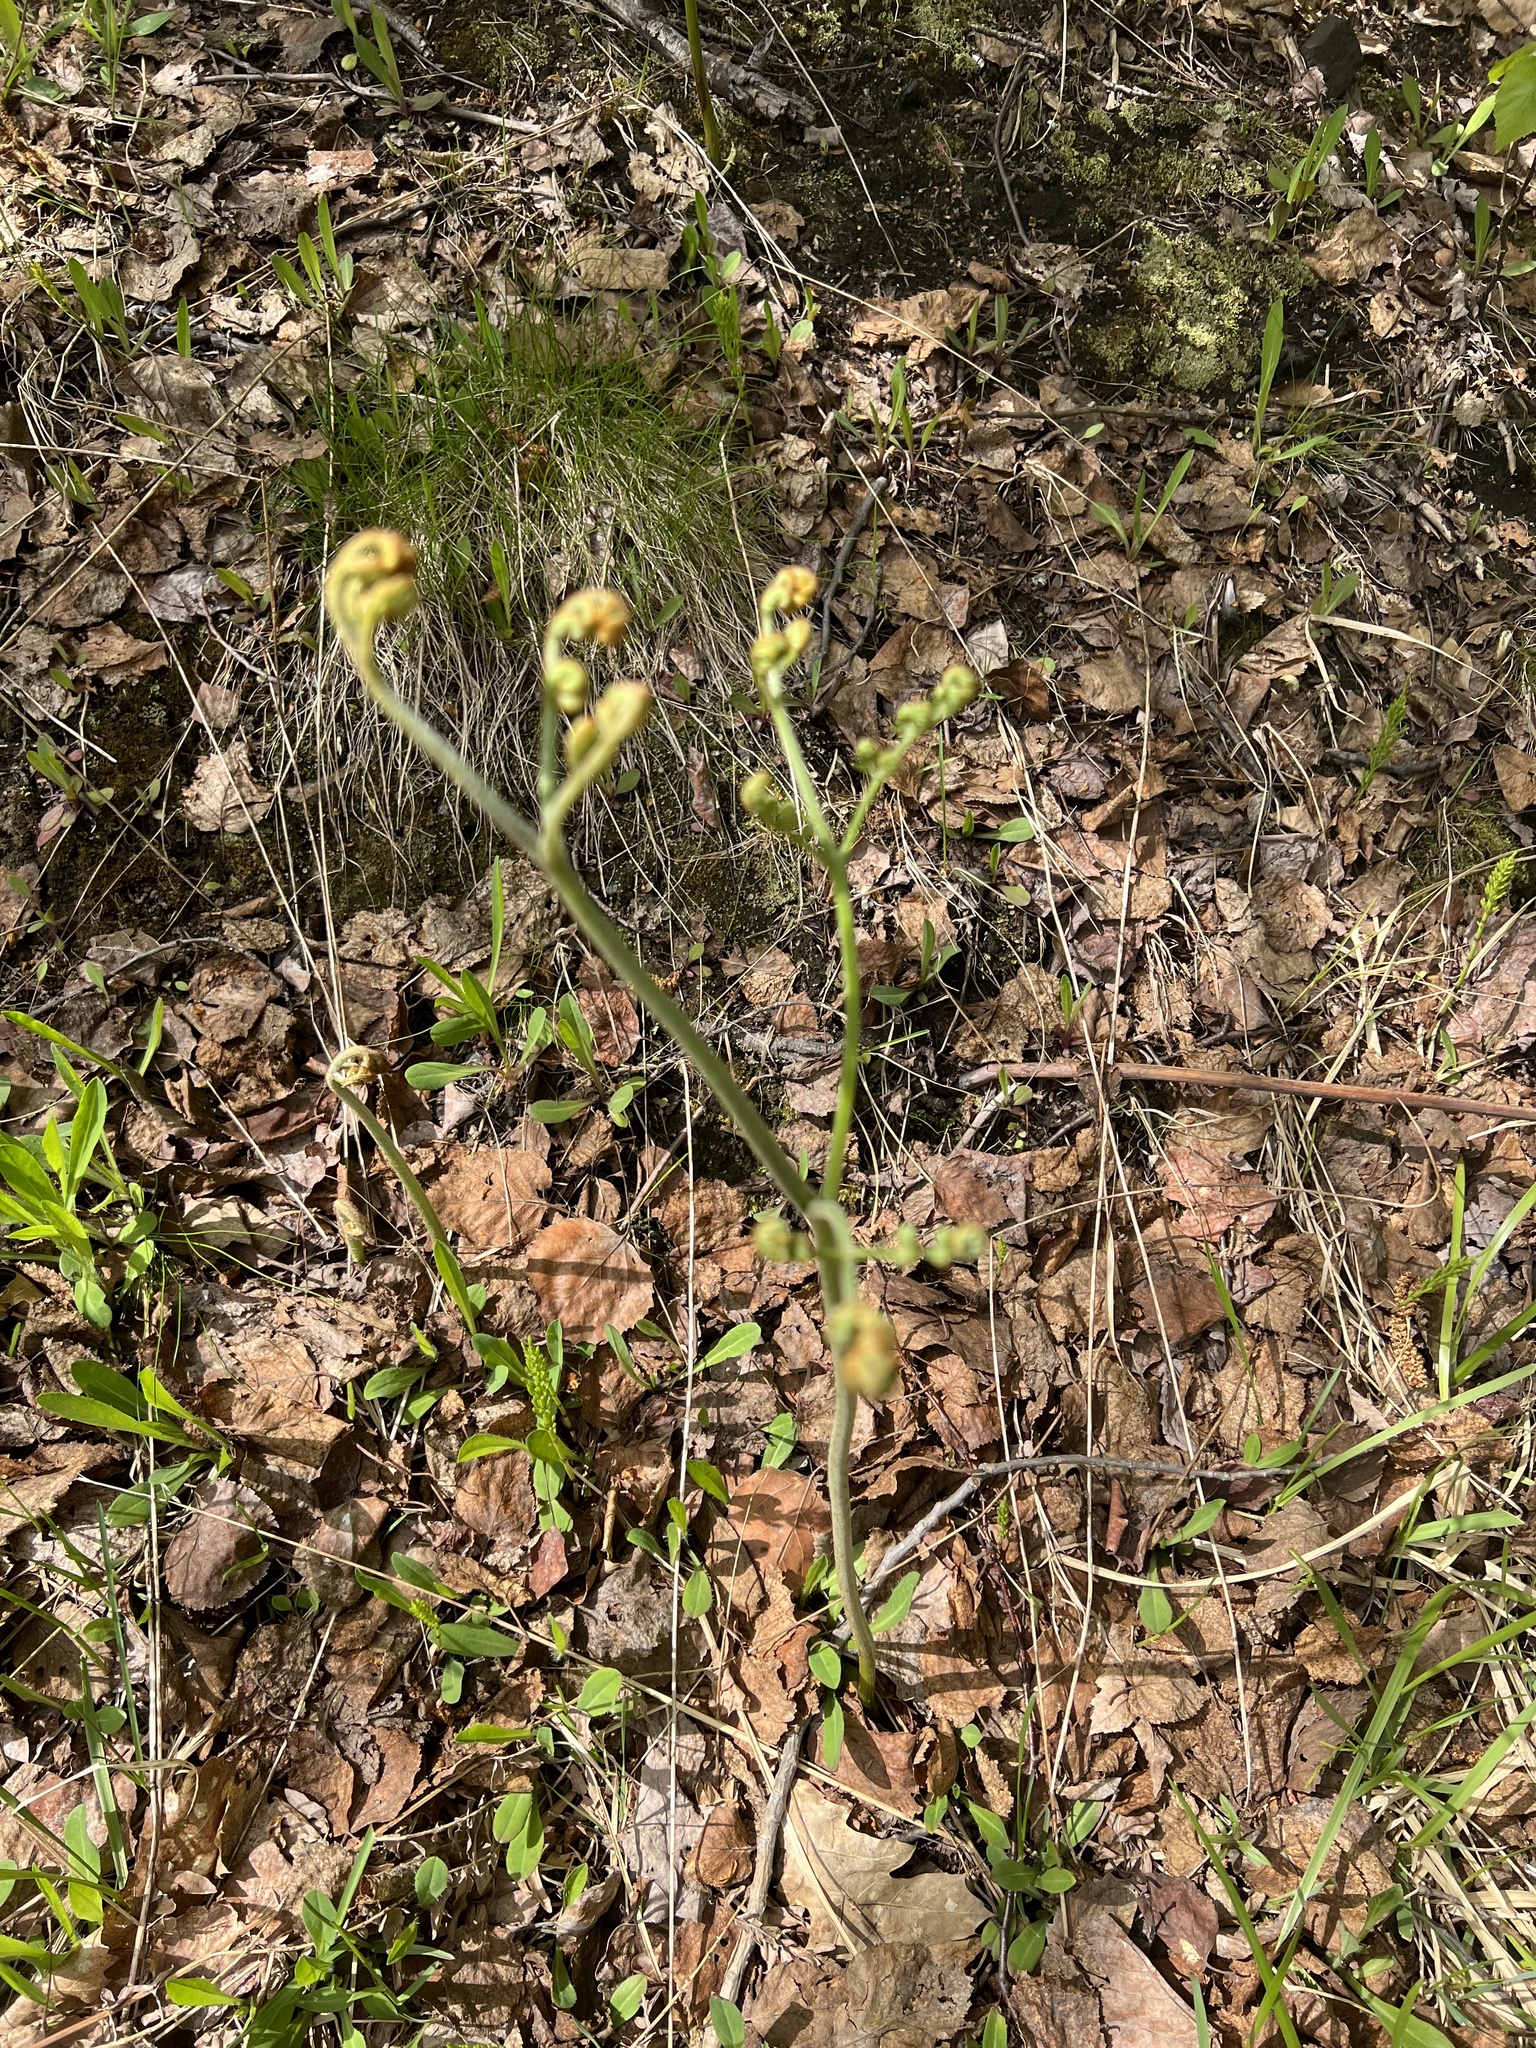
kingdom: Plantae
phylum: Tracheophyta
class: Polypodiopsida
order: Polypodiales
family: Dennstaedtiaceae
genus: Pteridium
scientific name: Pteridium aquilinum
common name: Bracken
